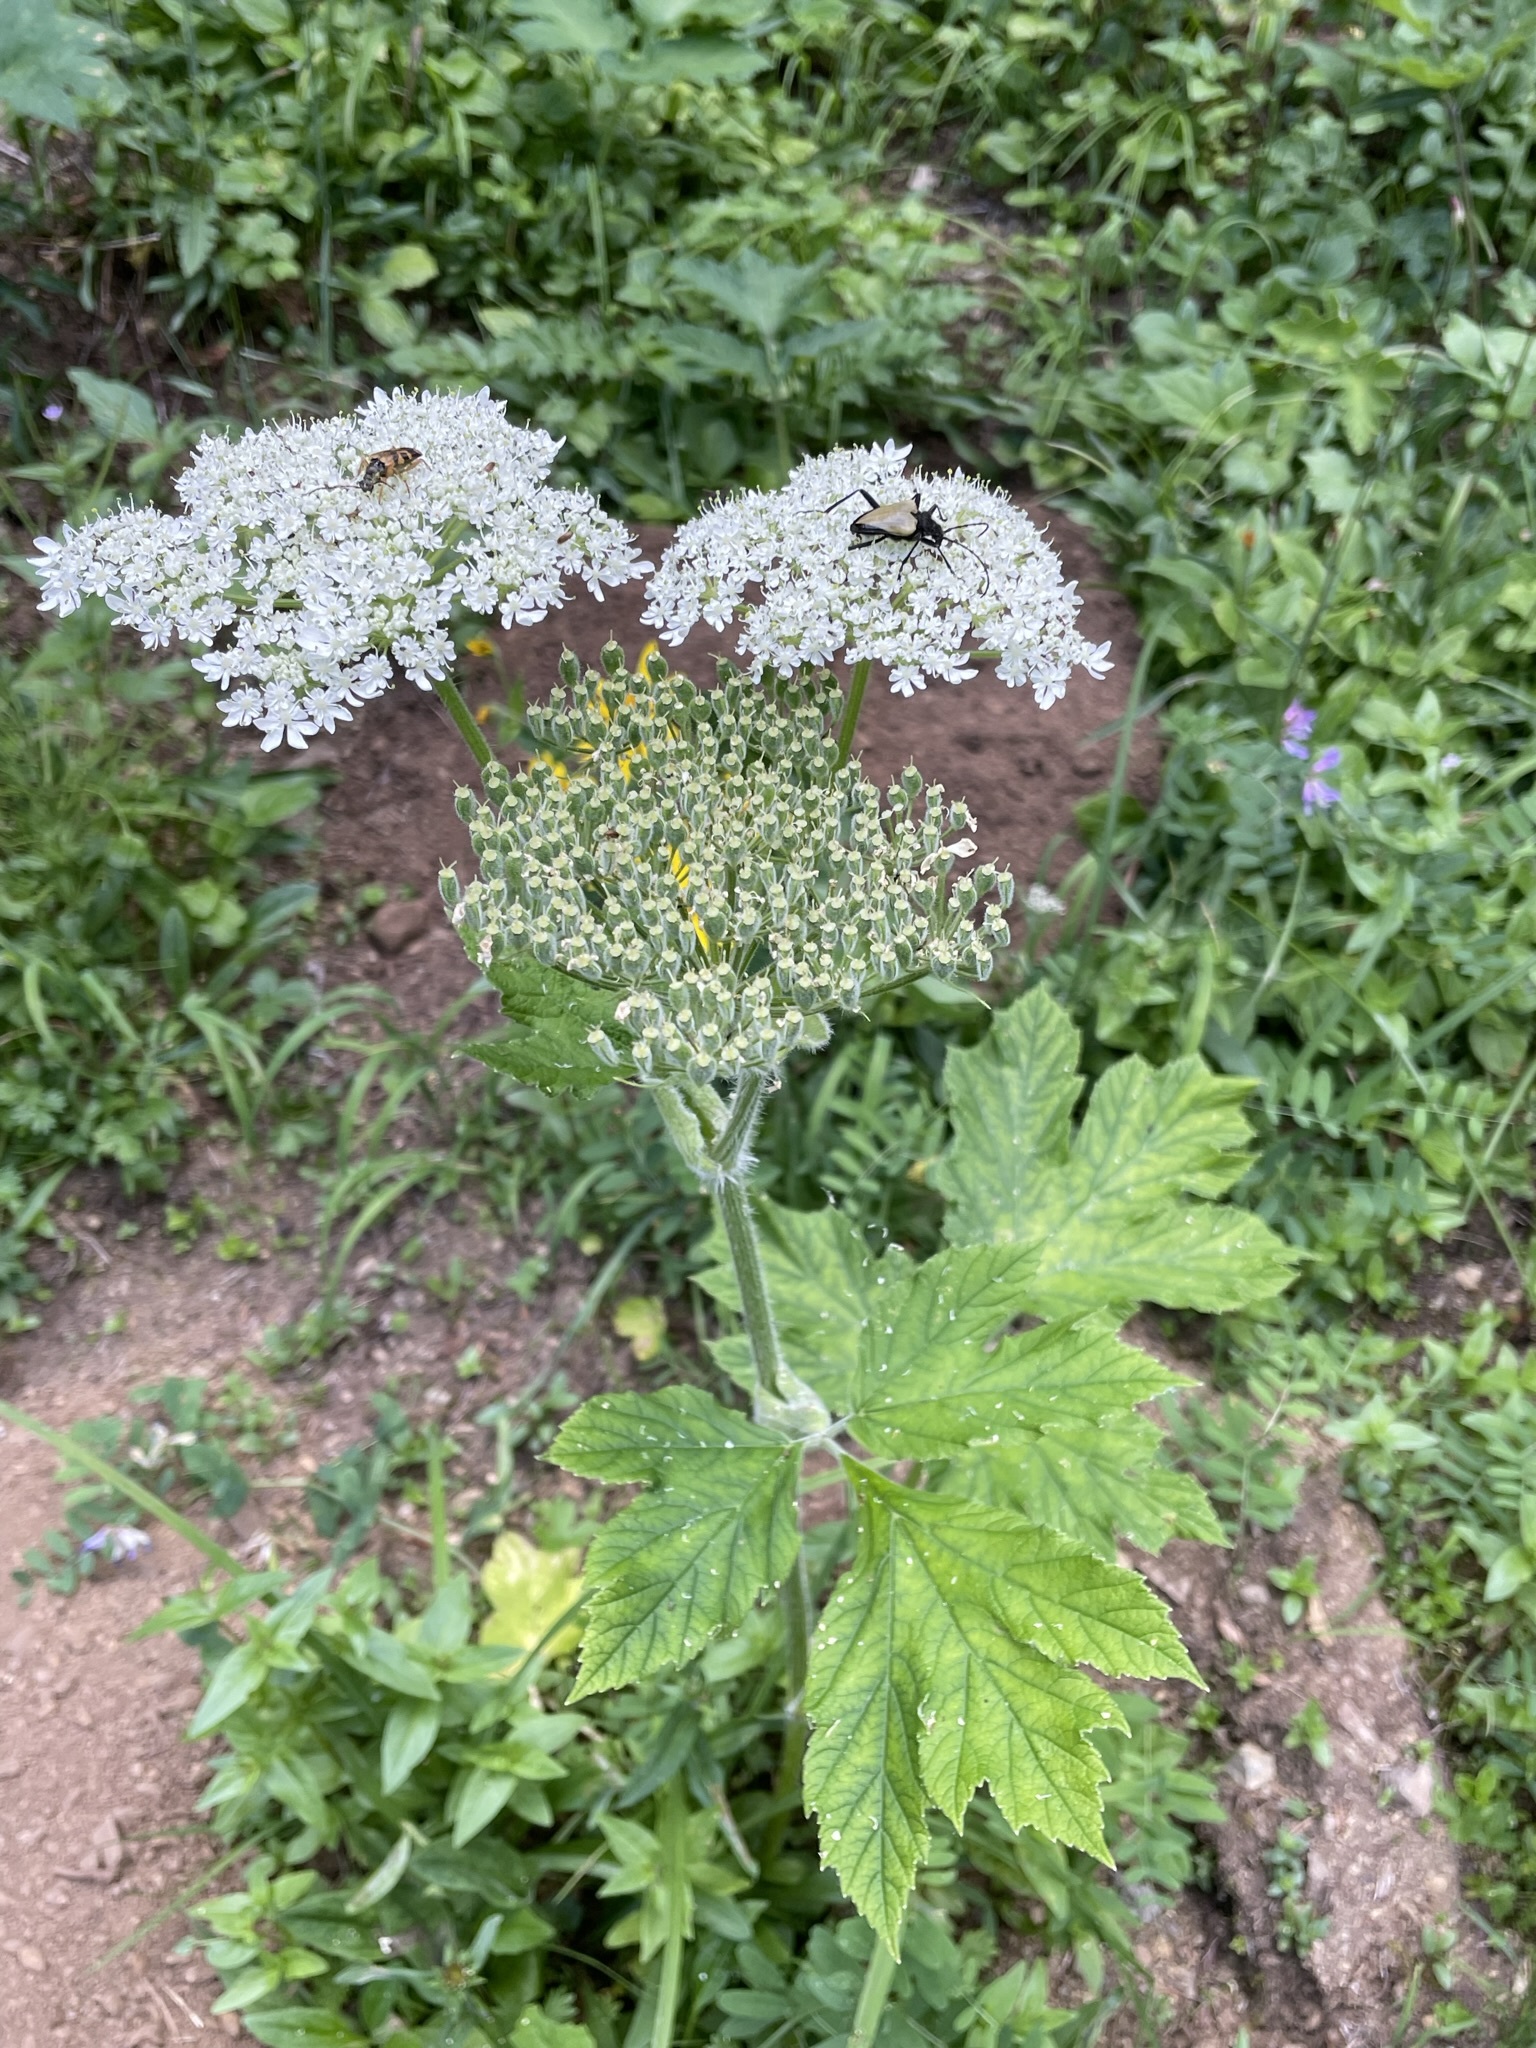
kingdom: Plantae
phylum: Tracheophyta
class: Magnoliopsida
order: Apiales
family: Apiaceae
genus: Heracleum
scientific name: Heracleum maximum
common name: American cow parsnip
